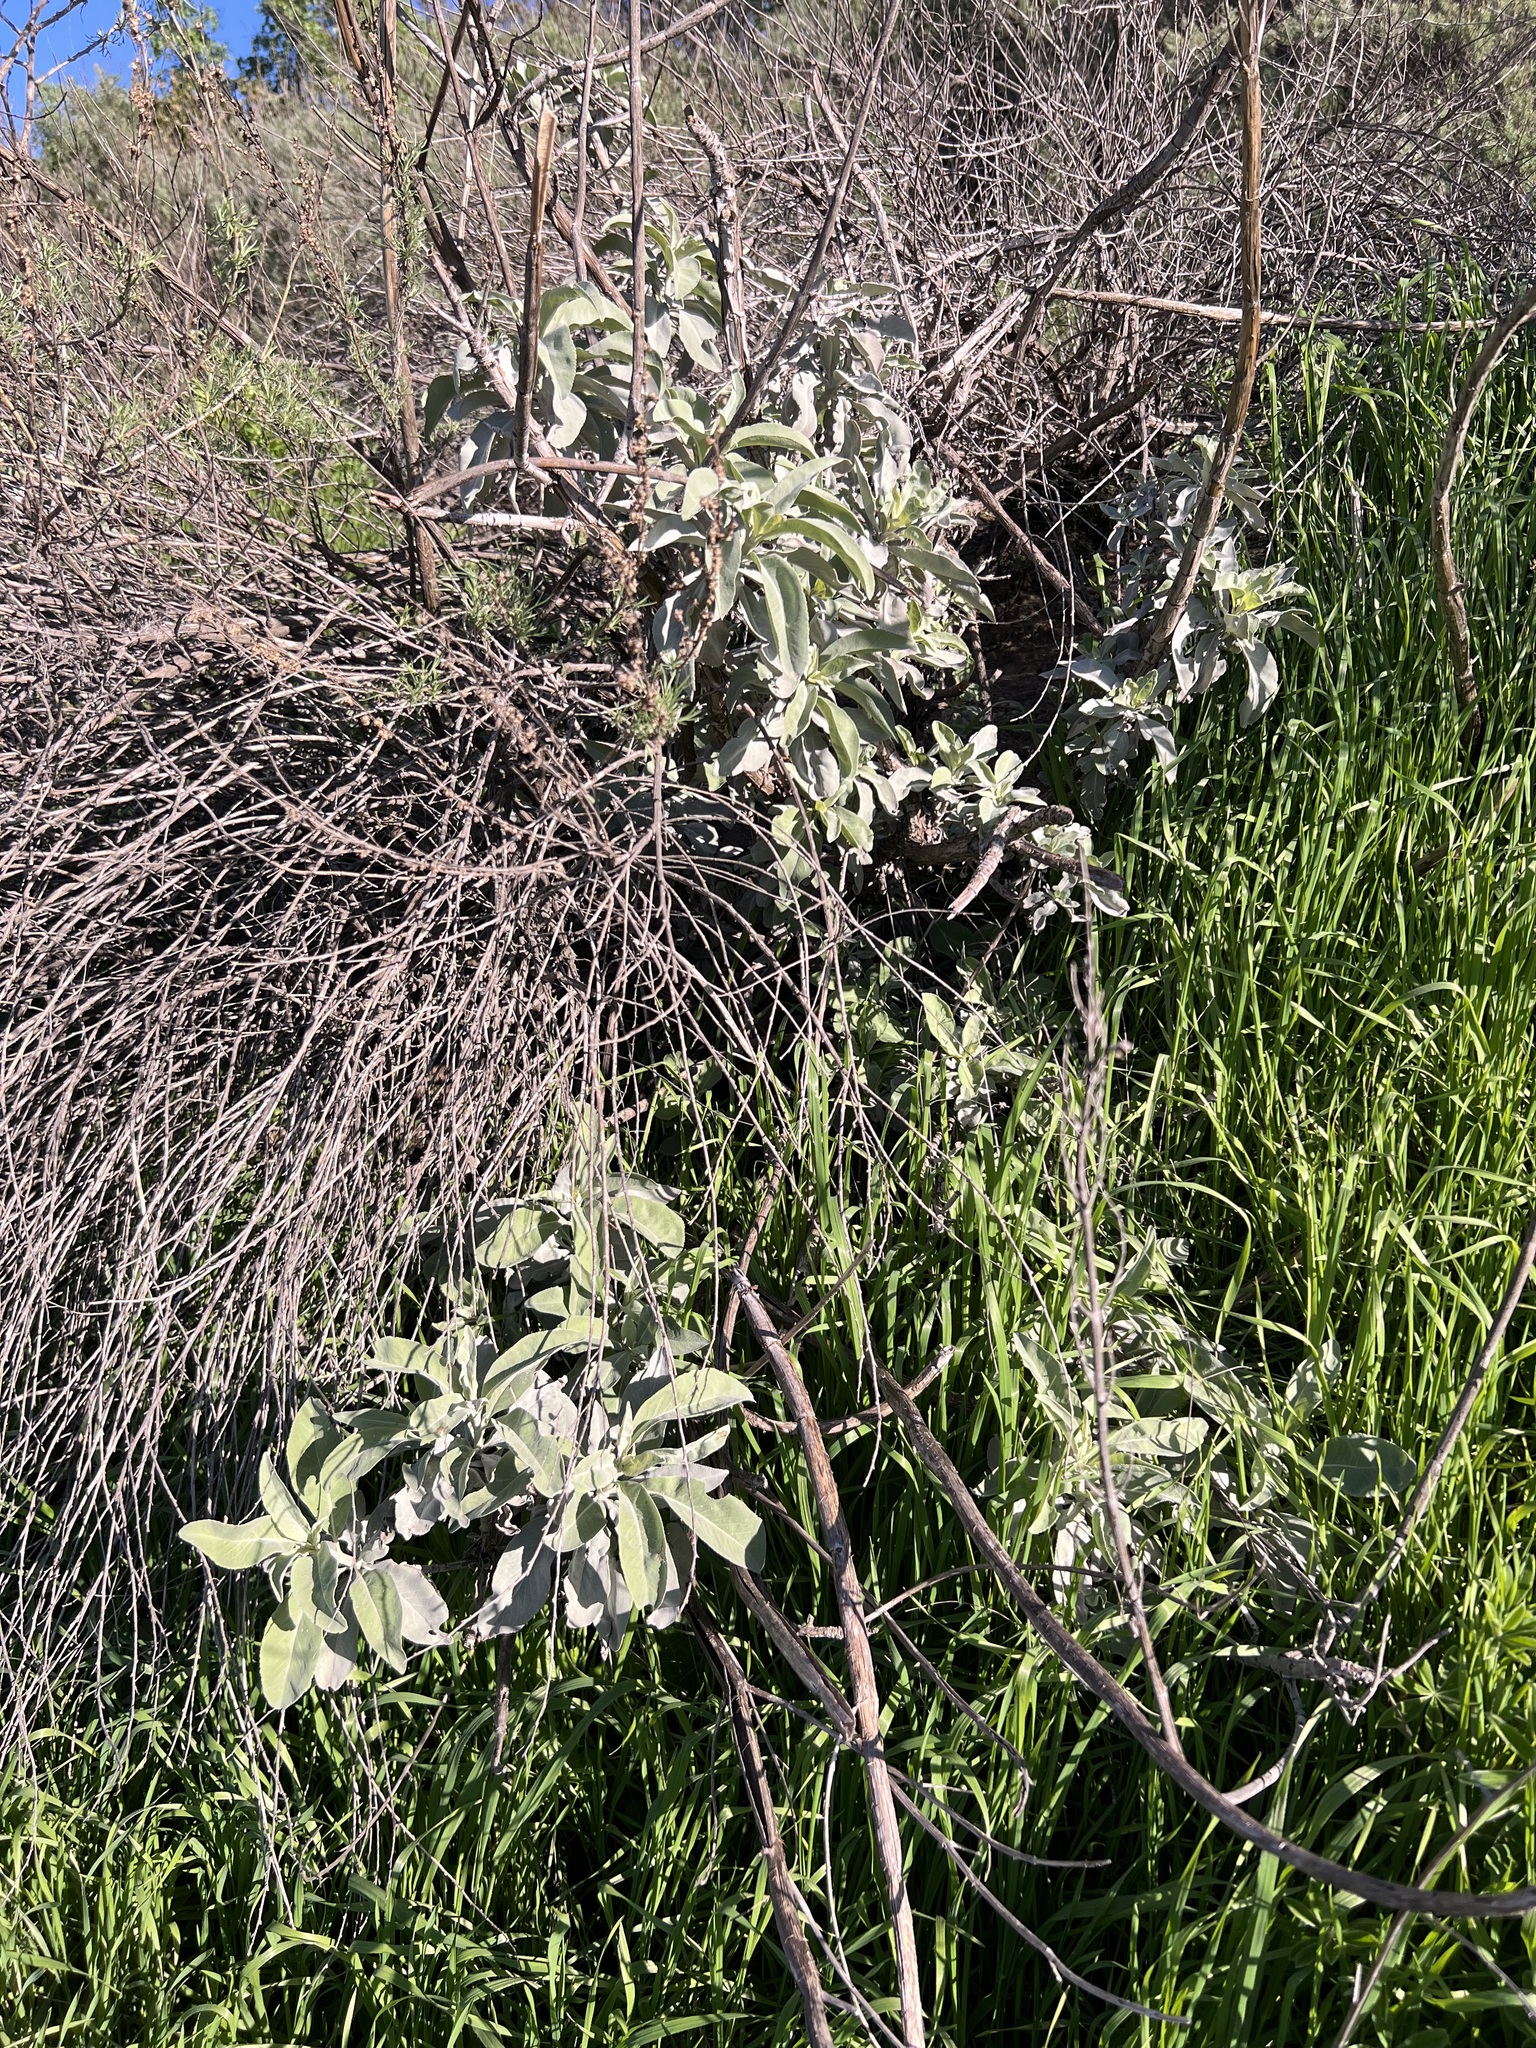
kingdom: Plantae
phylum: Tracheophyta
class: Magnoliopsida
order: Lamiales
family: Lamiaceae
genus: Salvia
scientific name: Salvia apiana
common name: White sage
